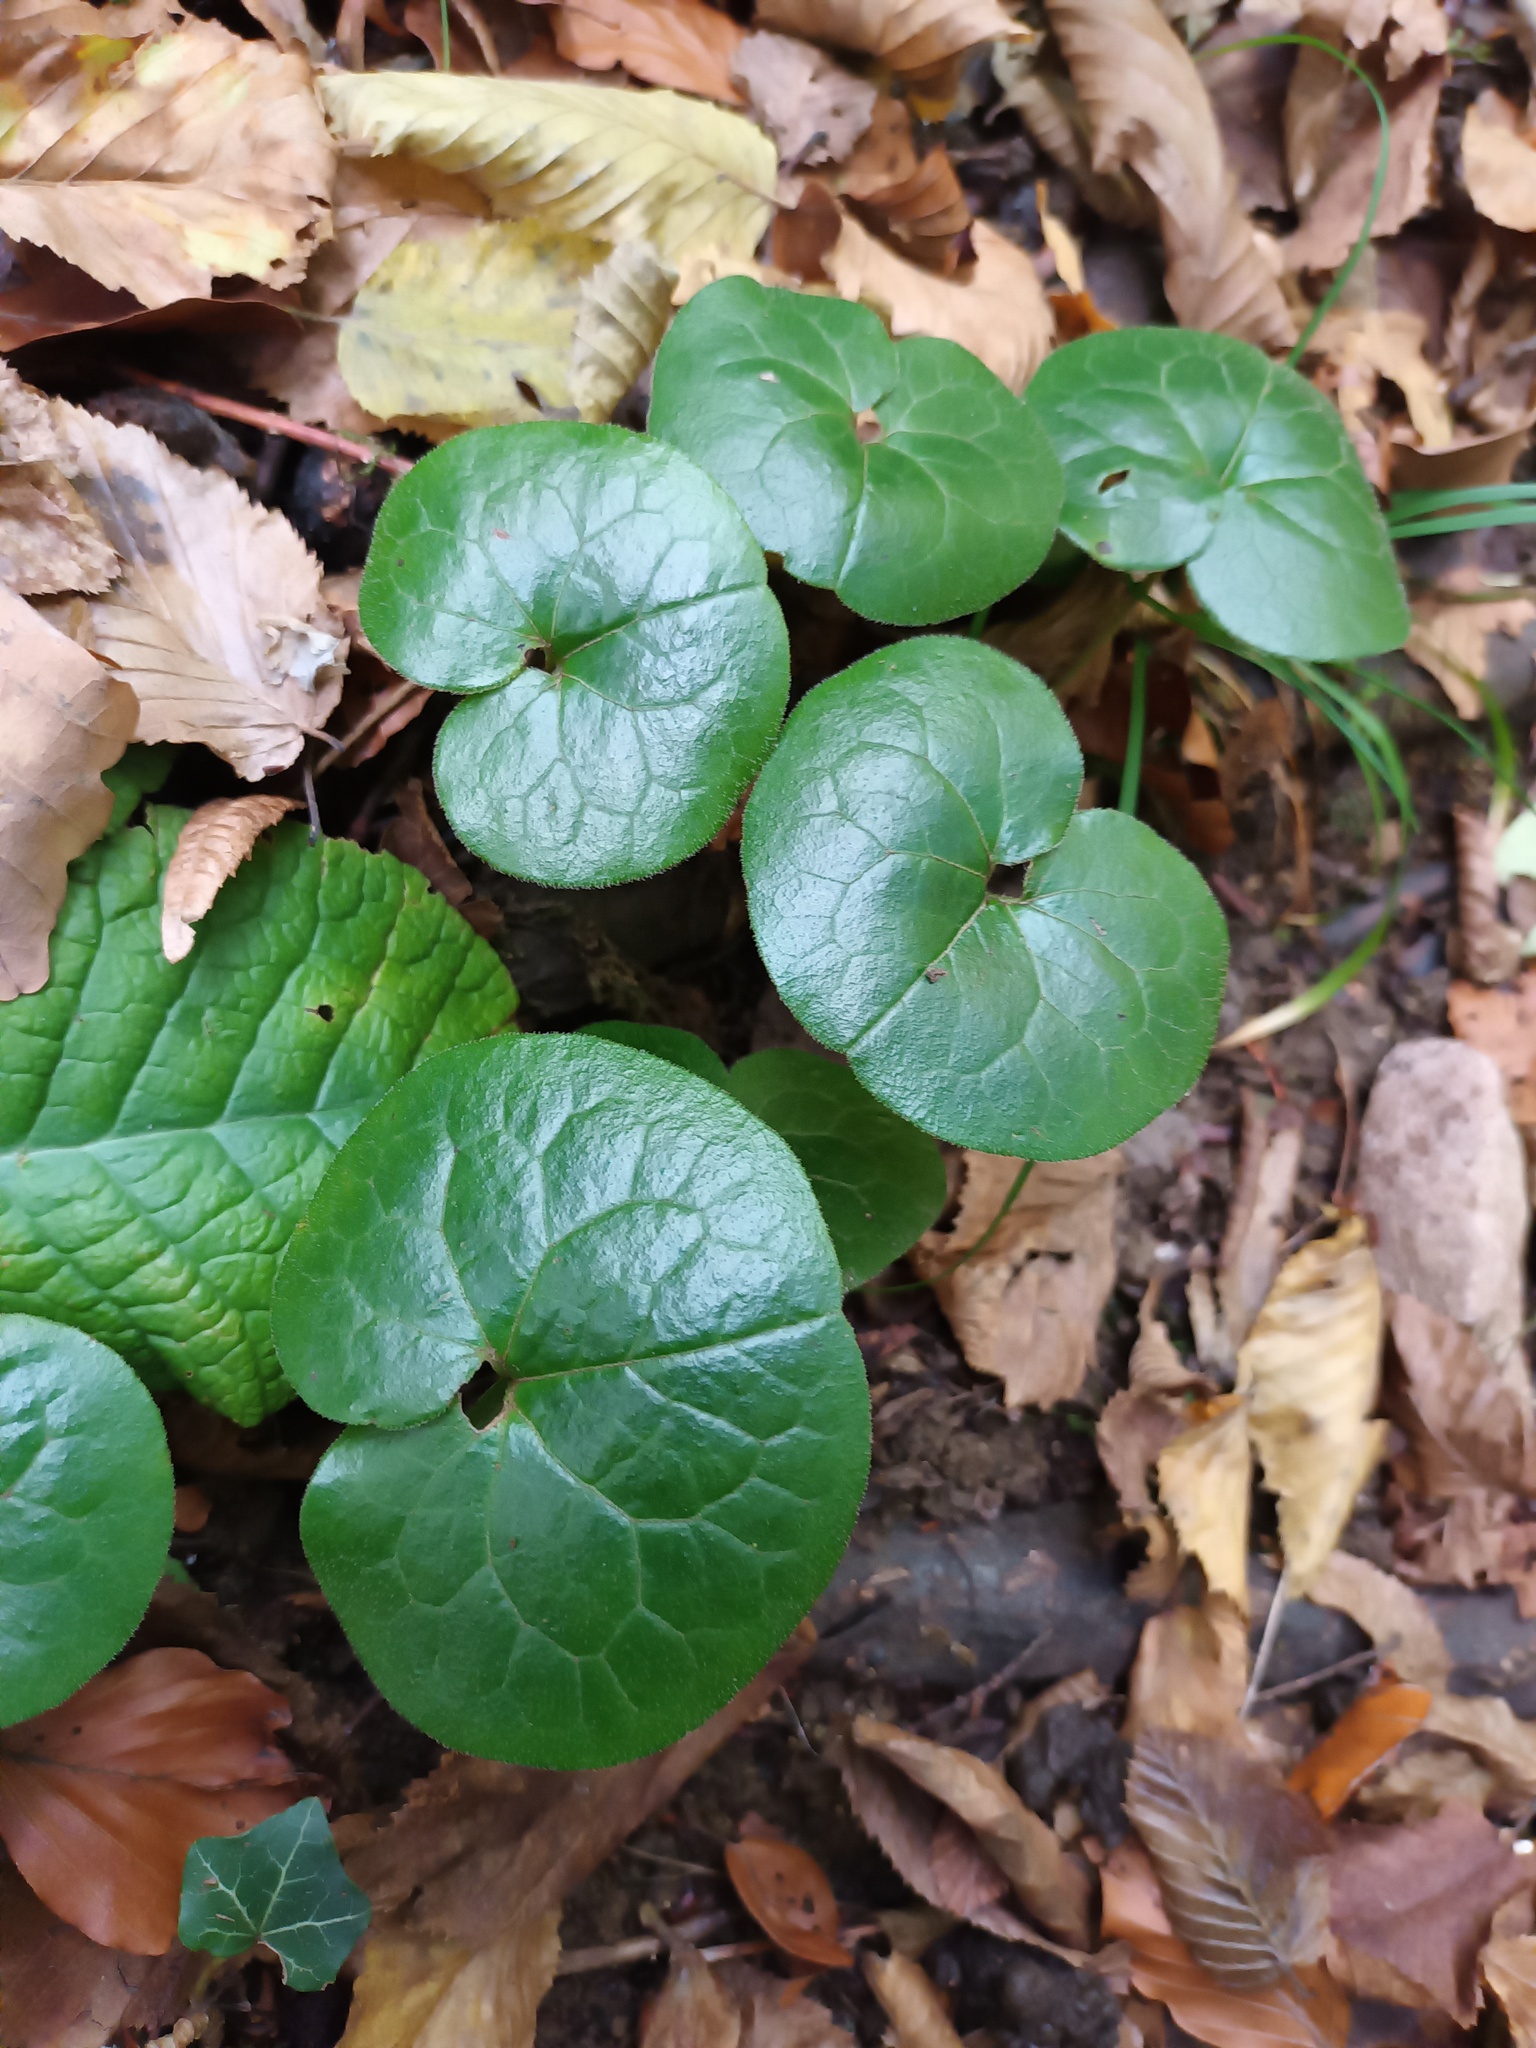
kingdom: Plantae
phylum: Tracheophyta
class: Magnoliopsida
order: Piperales
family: Aristolochiaceae
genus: Asarum
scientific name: Asarum europaeum
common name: Asarabacca
